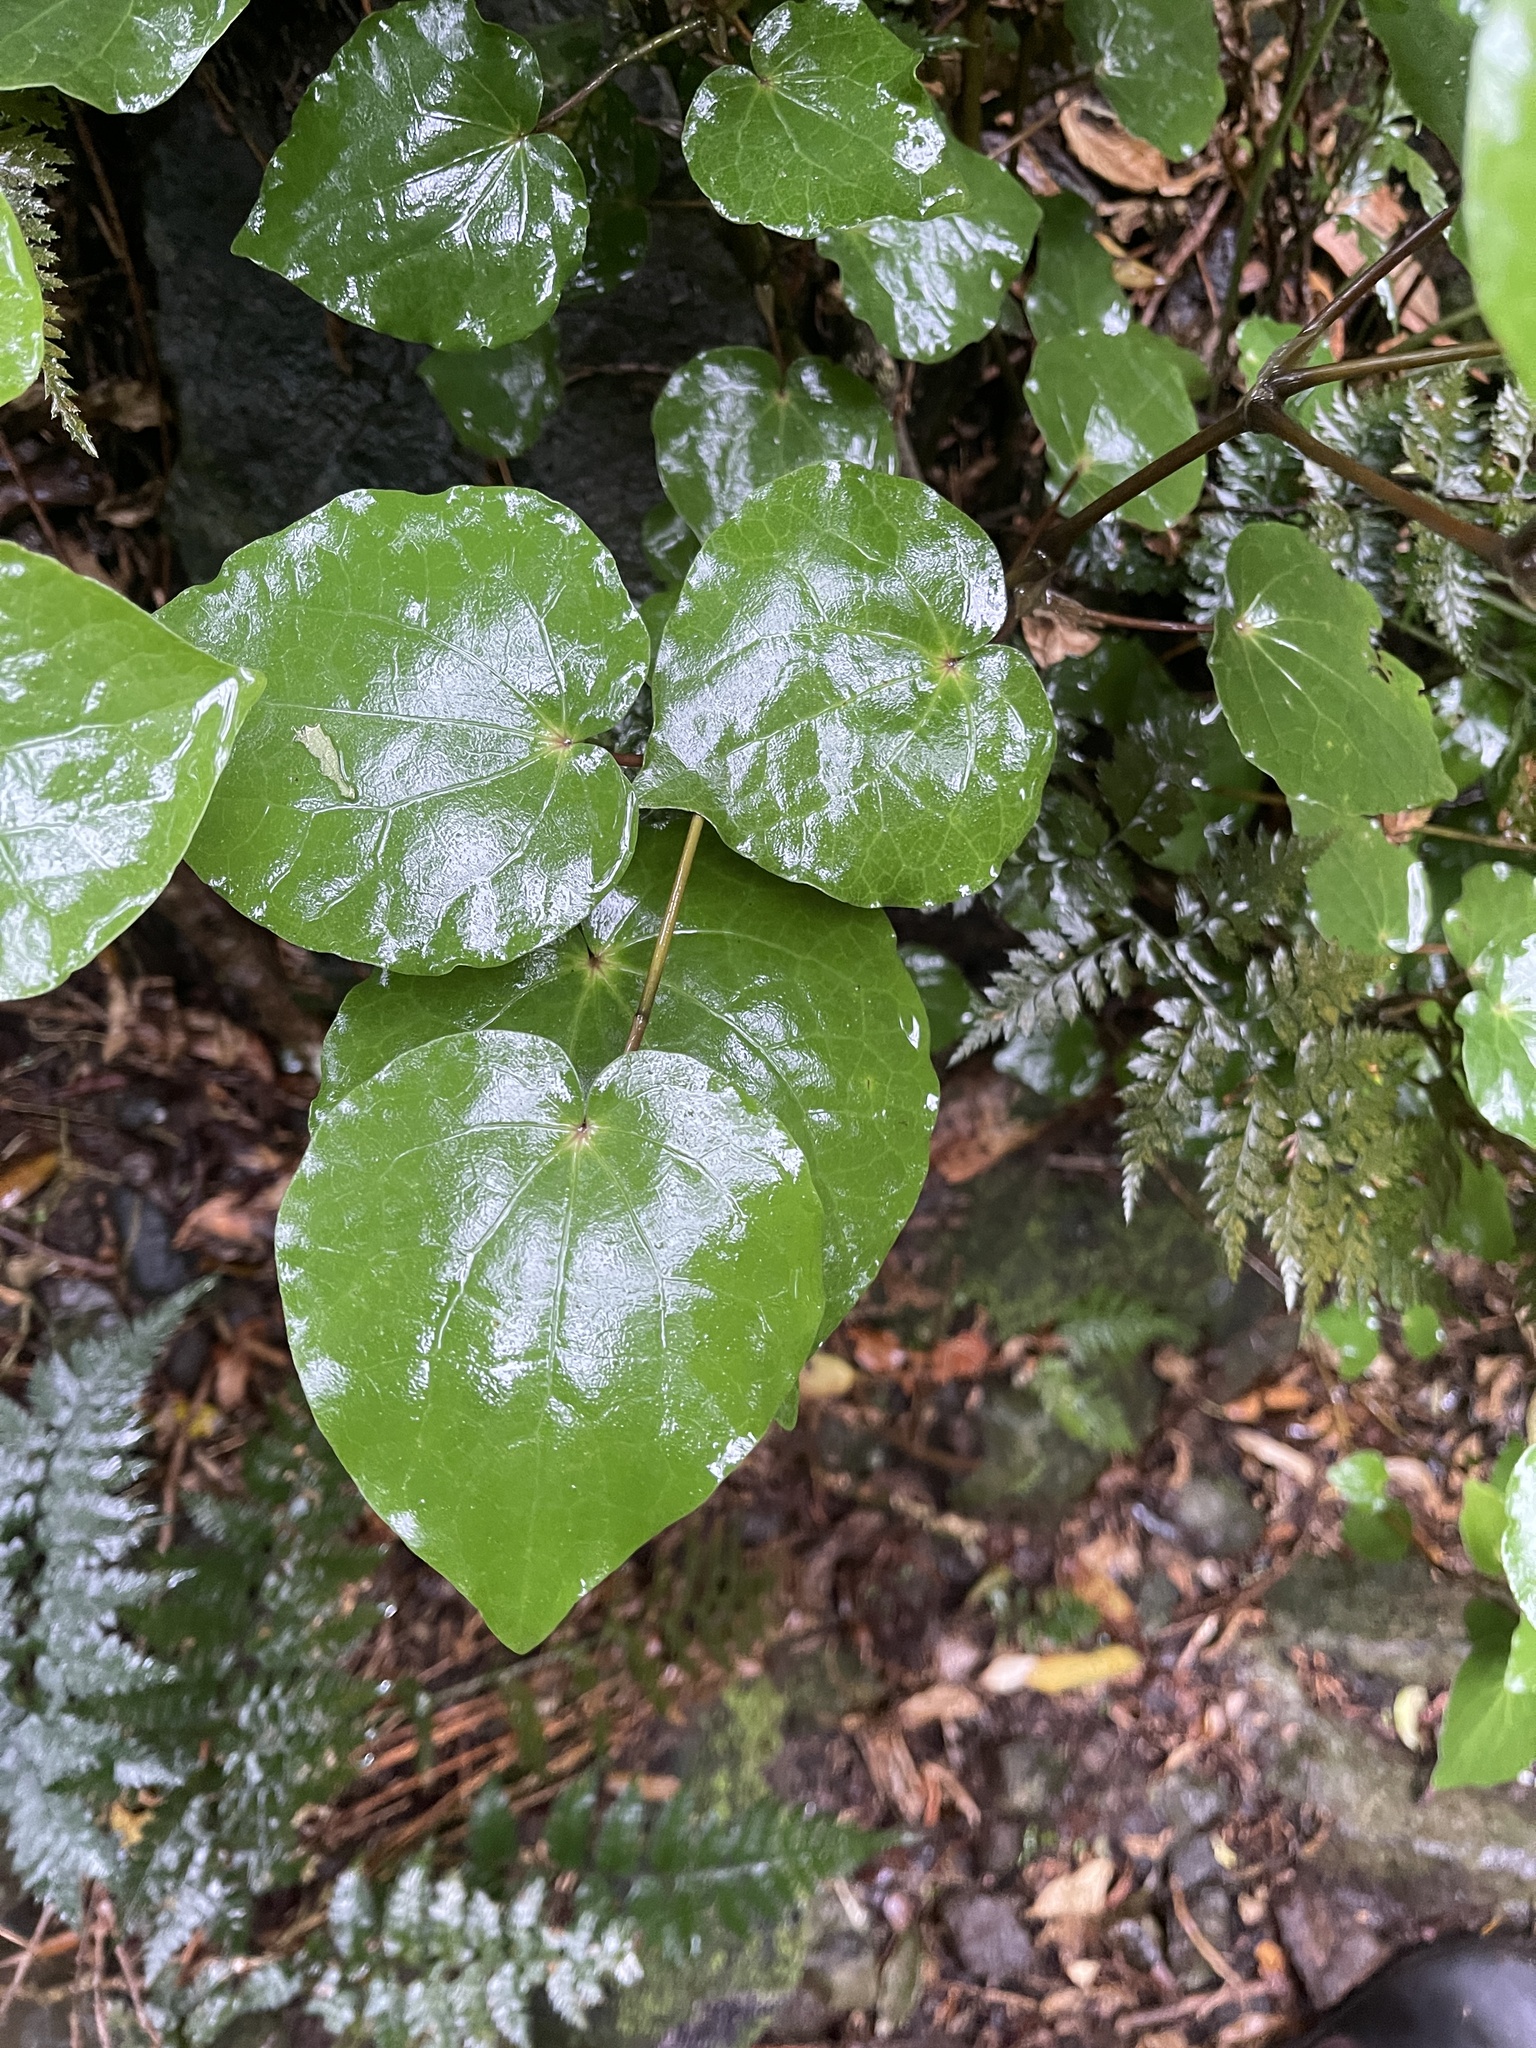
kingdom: Plantae
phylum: Tracheophyta
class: Magnoliopsida
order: Piperales
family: Piperaceae
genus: Macropiper
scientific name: Macropiper excelsum
